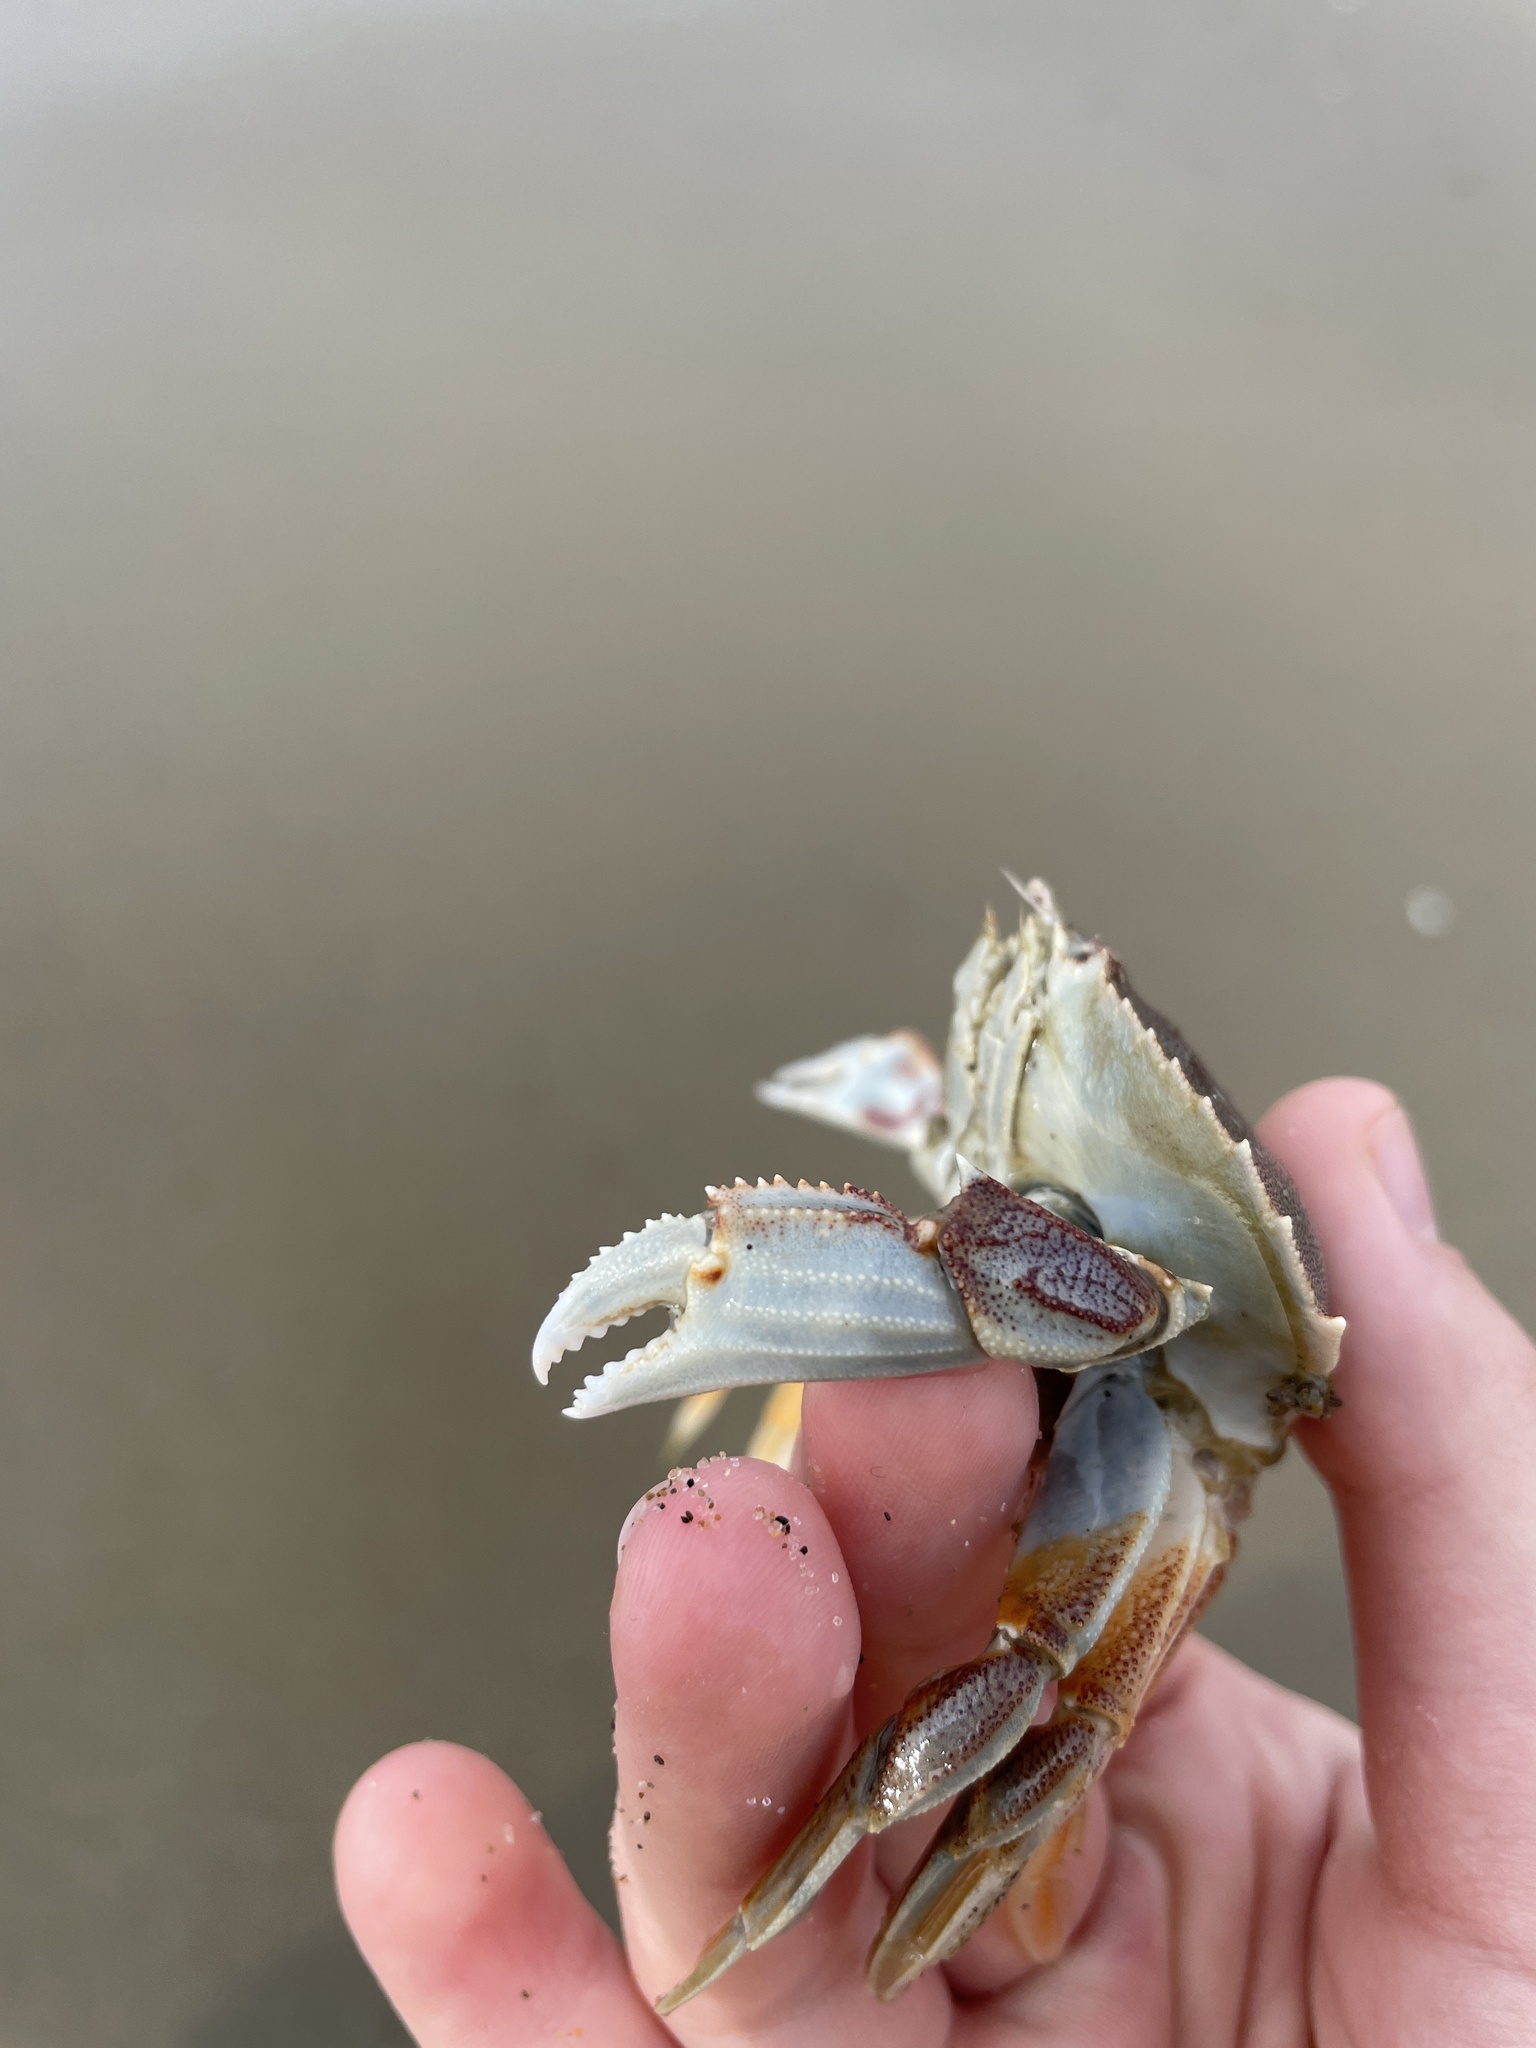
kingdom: Animalia
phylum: Arthropoda
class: Malacostraca
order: Decapoda
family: Cancridae
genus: Metacarcinus
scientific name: Metacarcinus magister
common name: Californian crab
